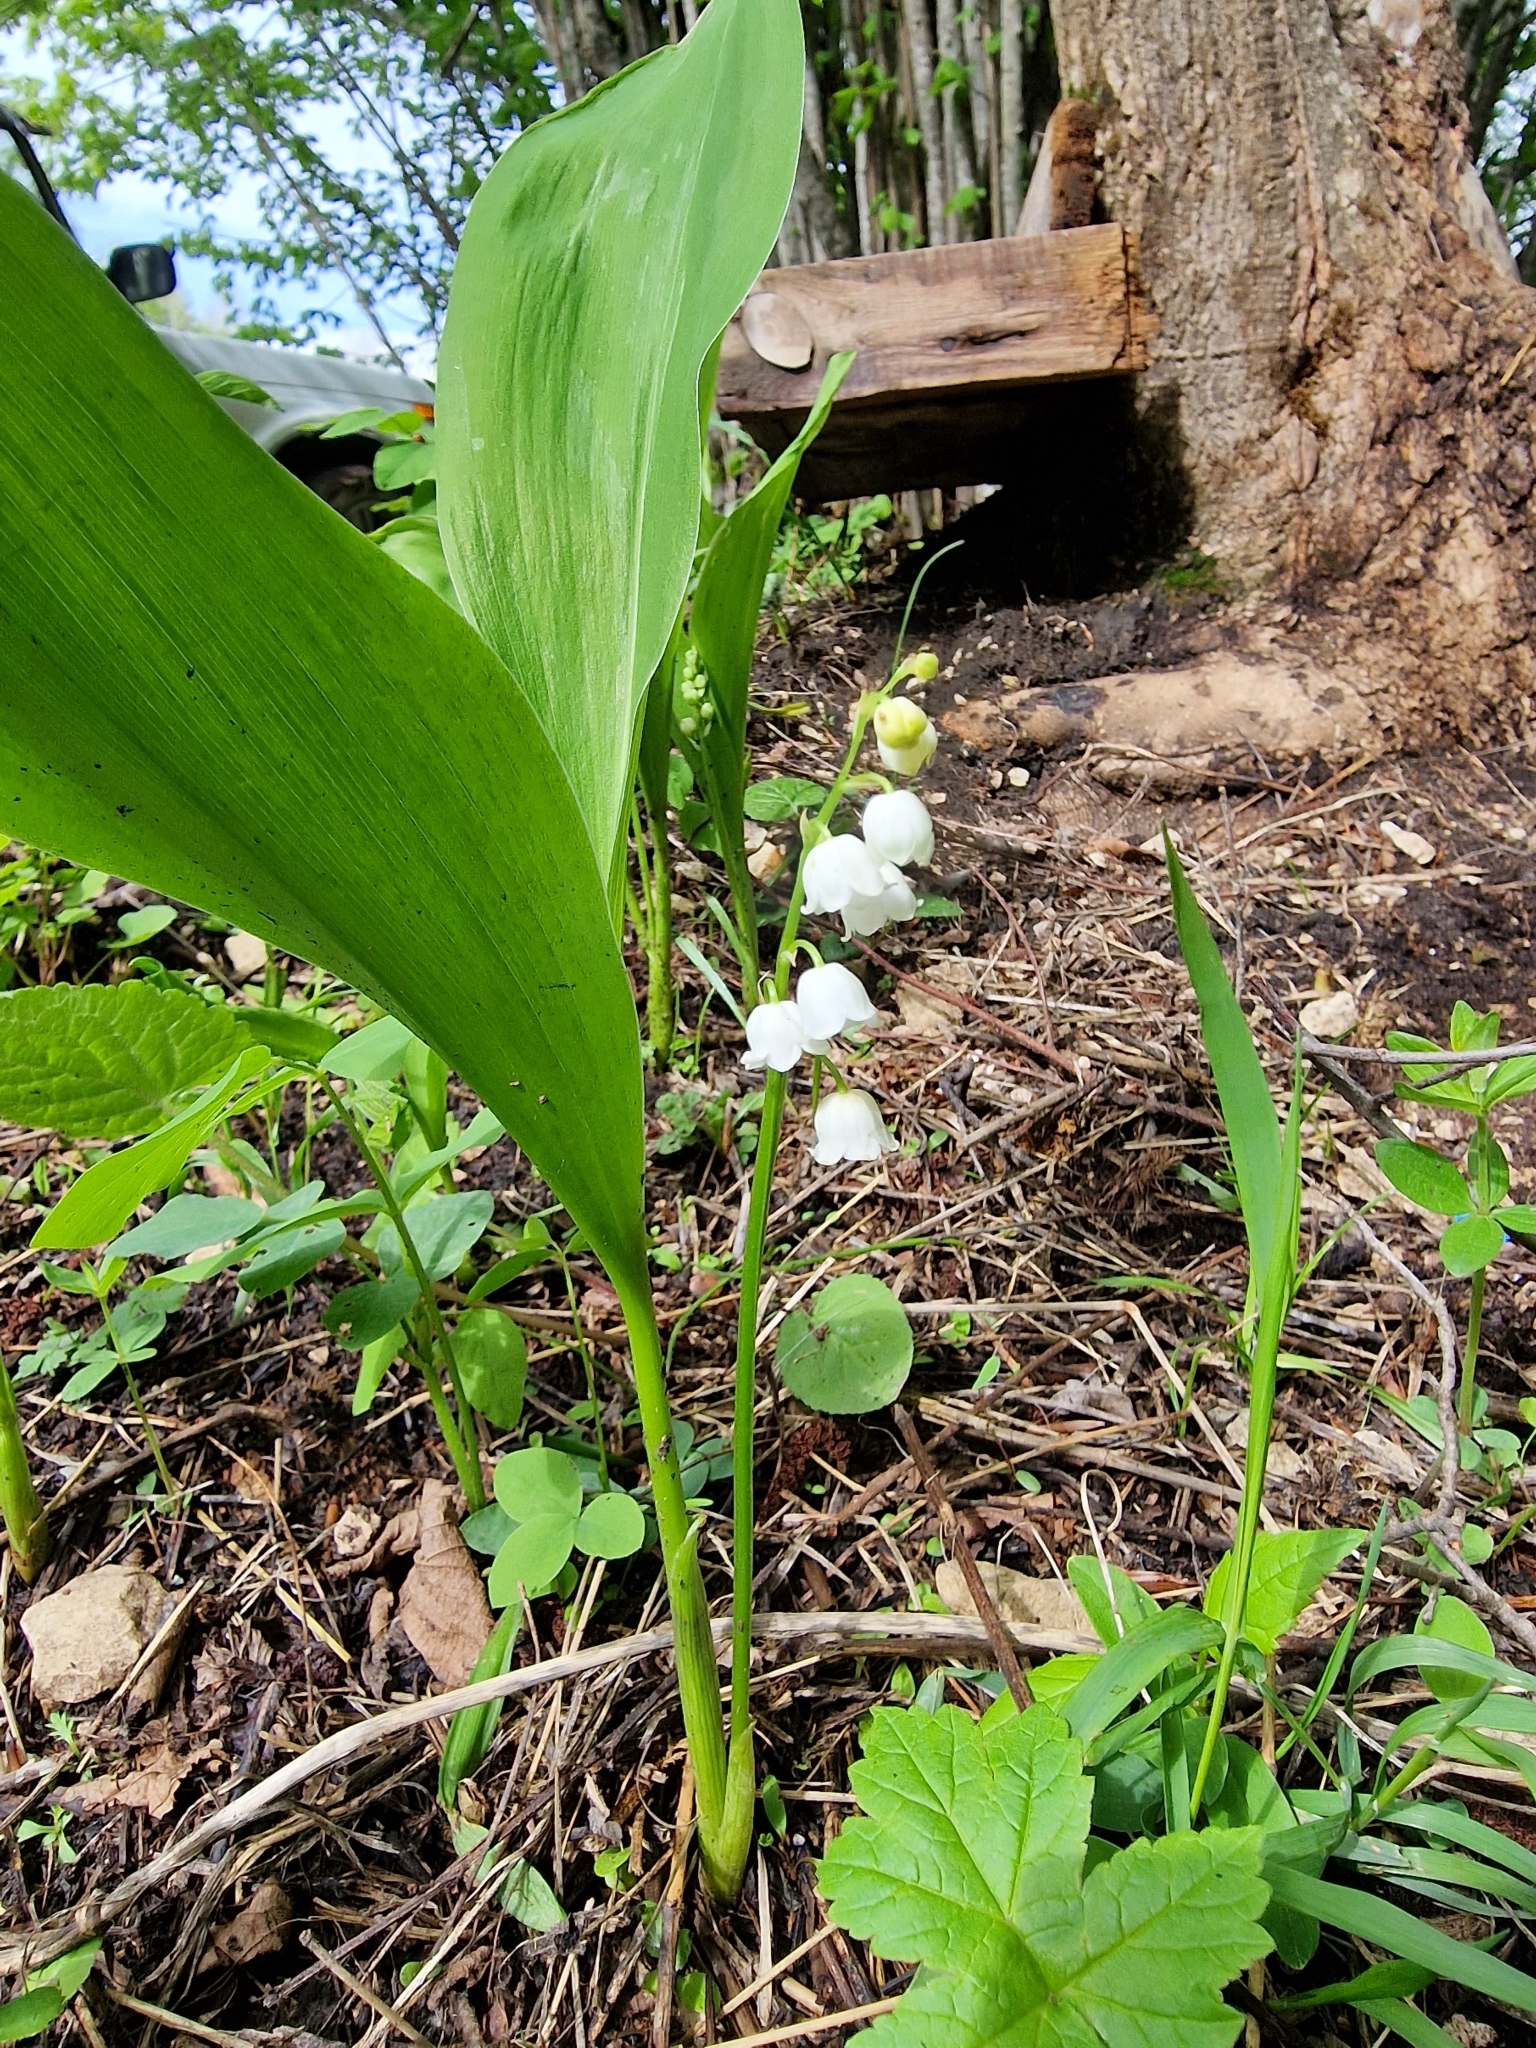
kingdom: Plantae
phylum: Tracheophyta
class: Liliopsida
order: Asparagales
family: Asparagaceae
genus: Convallaria
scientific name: Convallaria majalis
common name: Lily-of-the-valley
